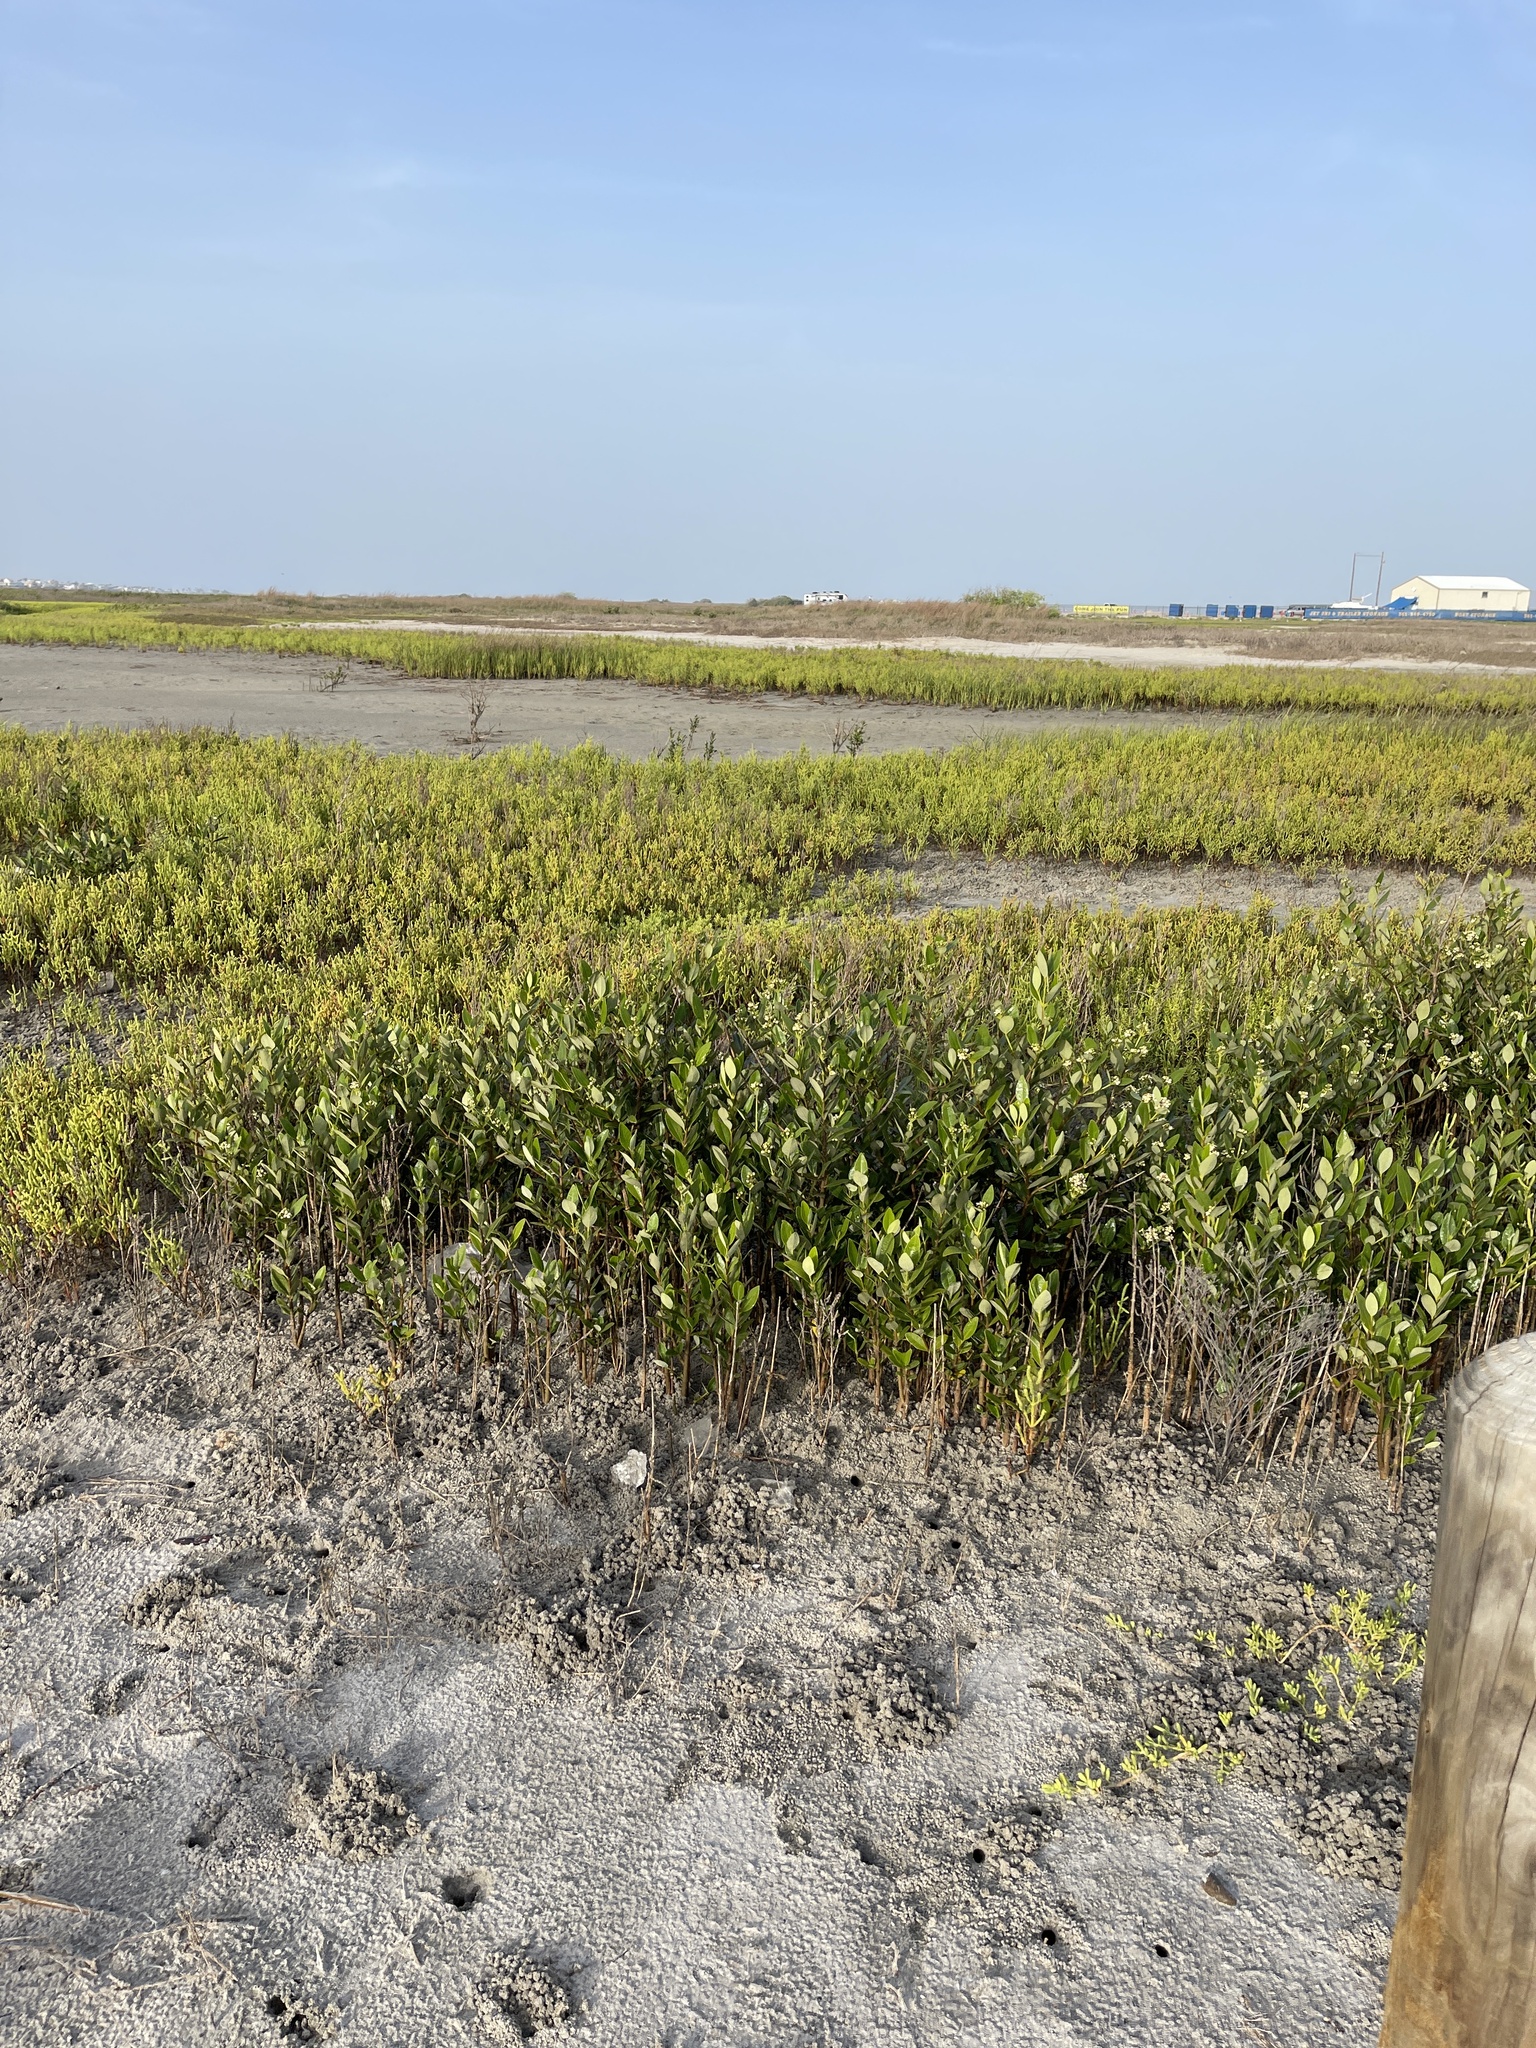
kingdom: Plantae
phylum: Tracheophyta
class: Magnoliopsida
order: Lamiales
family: Acanthaceae
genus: Avicennia
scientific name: Avicennia germinans
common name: Black mangrove
